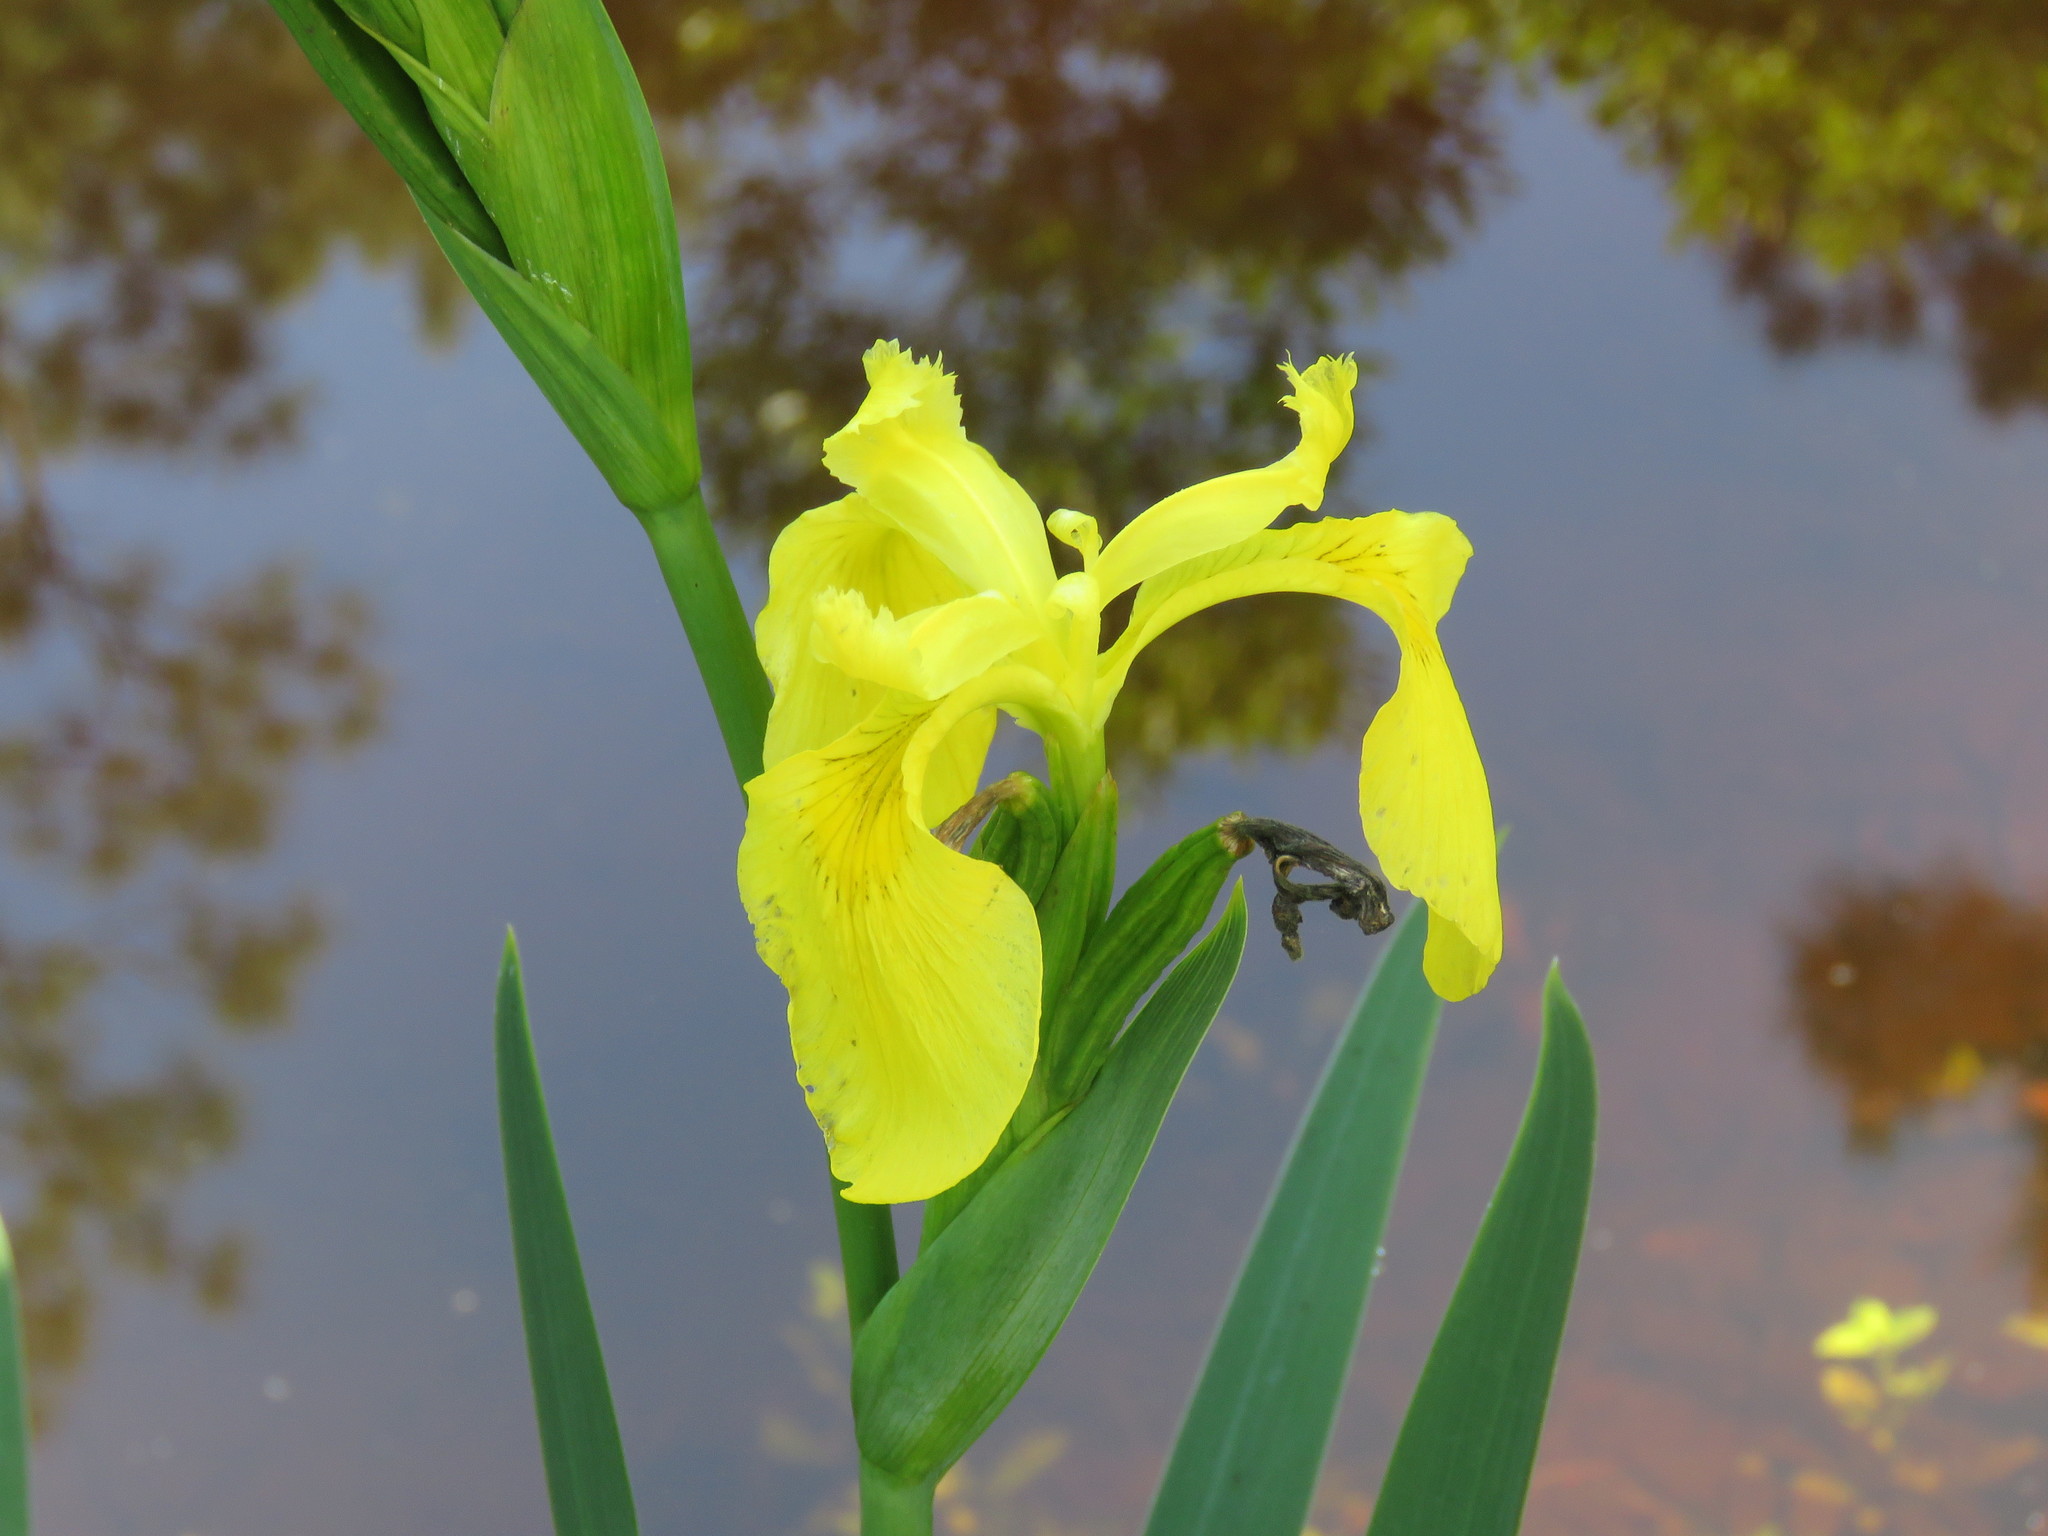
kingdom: Plantae
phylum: Tracheophyta
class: Liliopsida
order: Asparagales
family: Iridaceae
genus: Iris
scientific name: Iris pseudacorus
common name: Yellow flag
